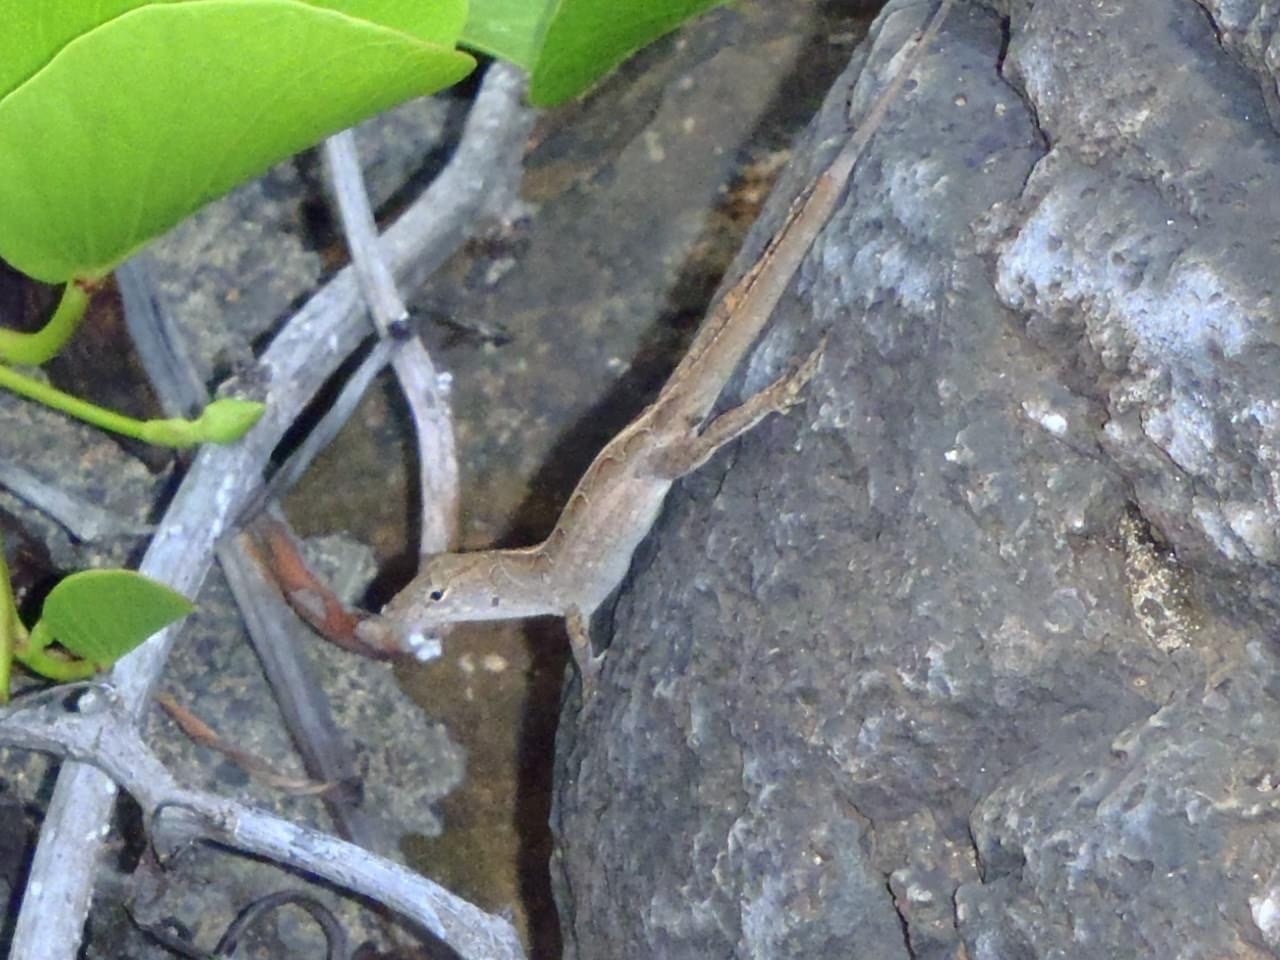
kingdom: Animalia
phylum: Chordata
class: Squamata
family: Dactyloidae
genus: Anolis
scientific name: Anolis sagrei
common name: Brown anole
